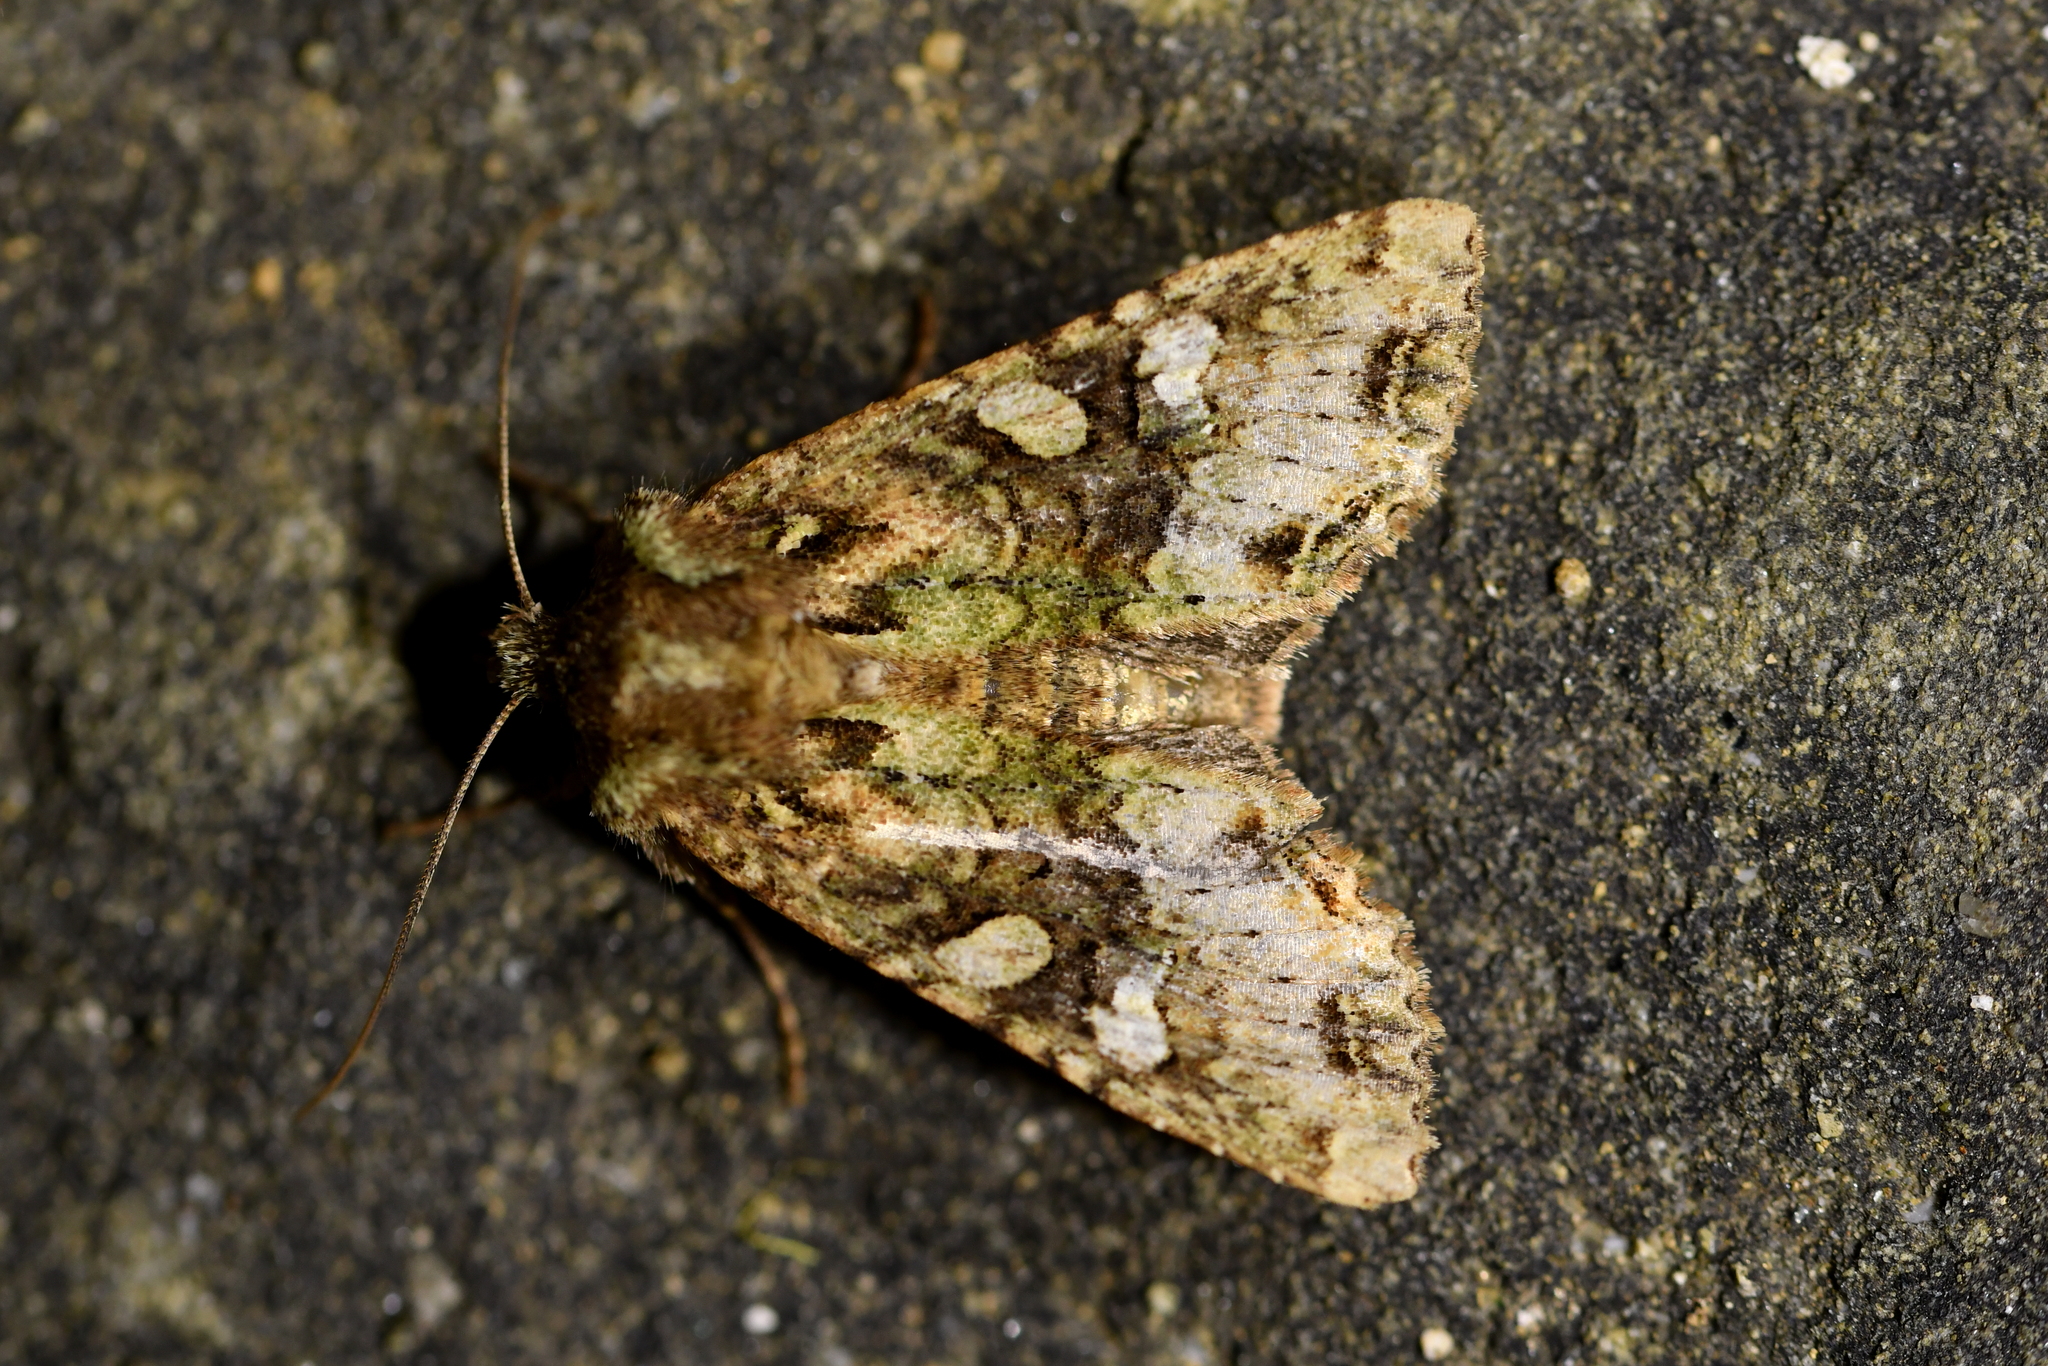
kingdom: Animalia
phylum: Arthropoda
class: Insecta
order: Lepidoptera
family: Noctuidae
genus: Meterana
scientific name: Meterana
